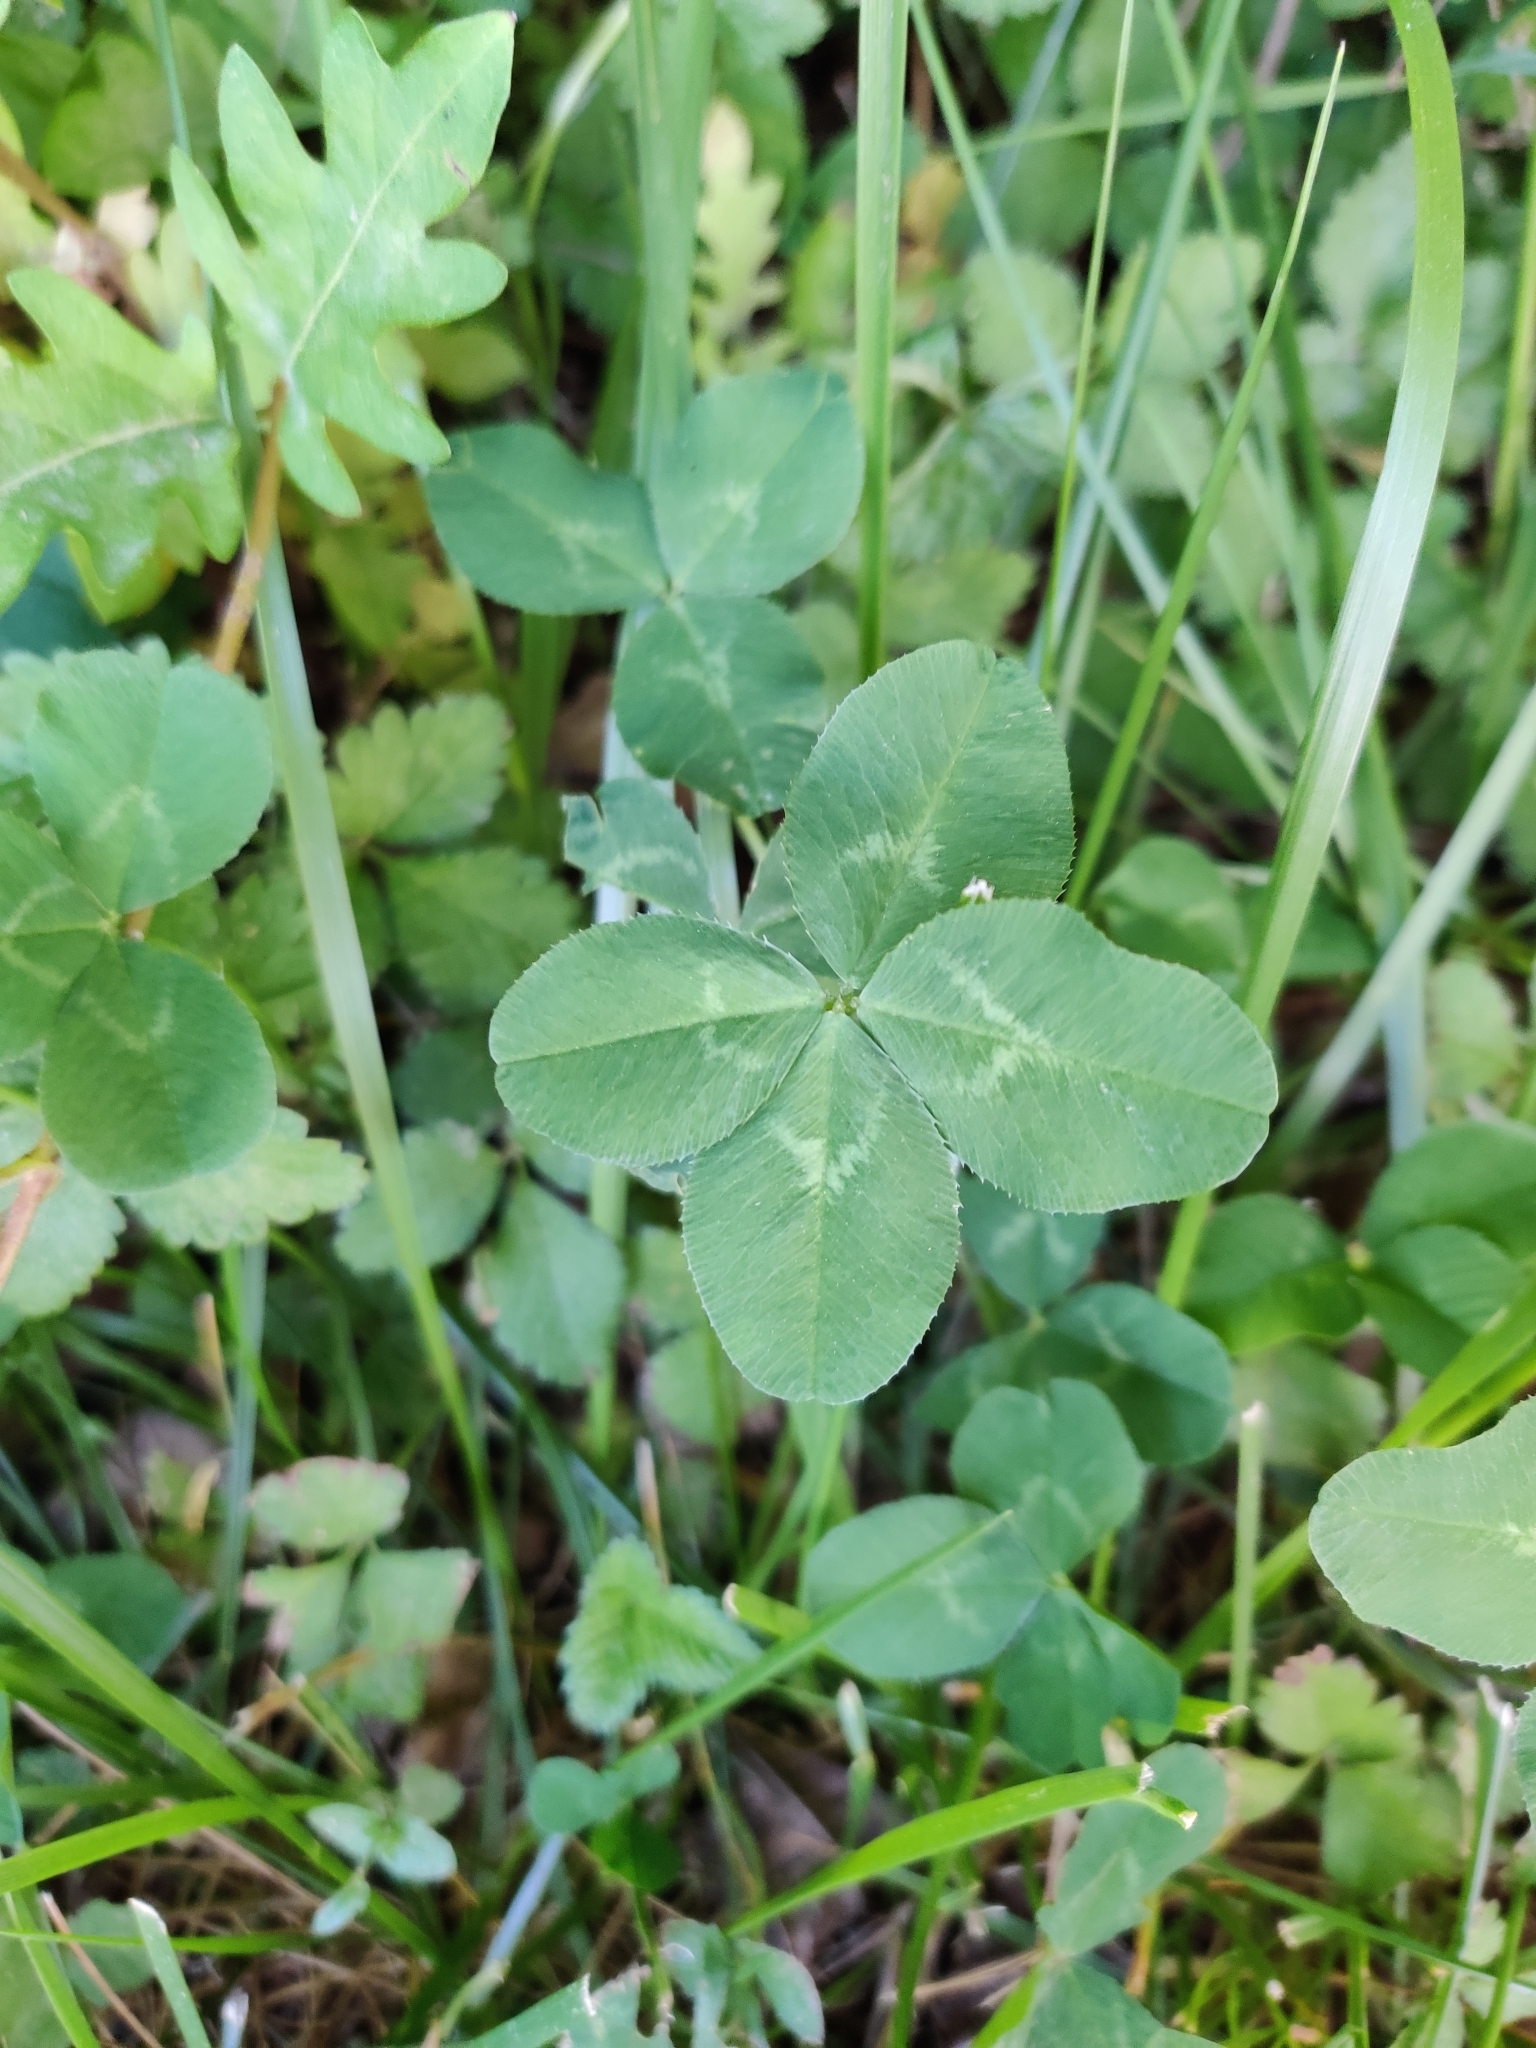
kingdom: Plantae
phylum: Tracheophyta
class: Magnoliopsida
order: Fabales
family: Fabaceae
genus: Trifolium
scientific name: Trifolium repens
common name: White clover
